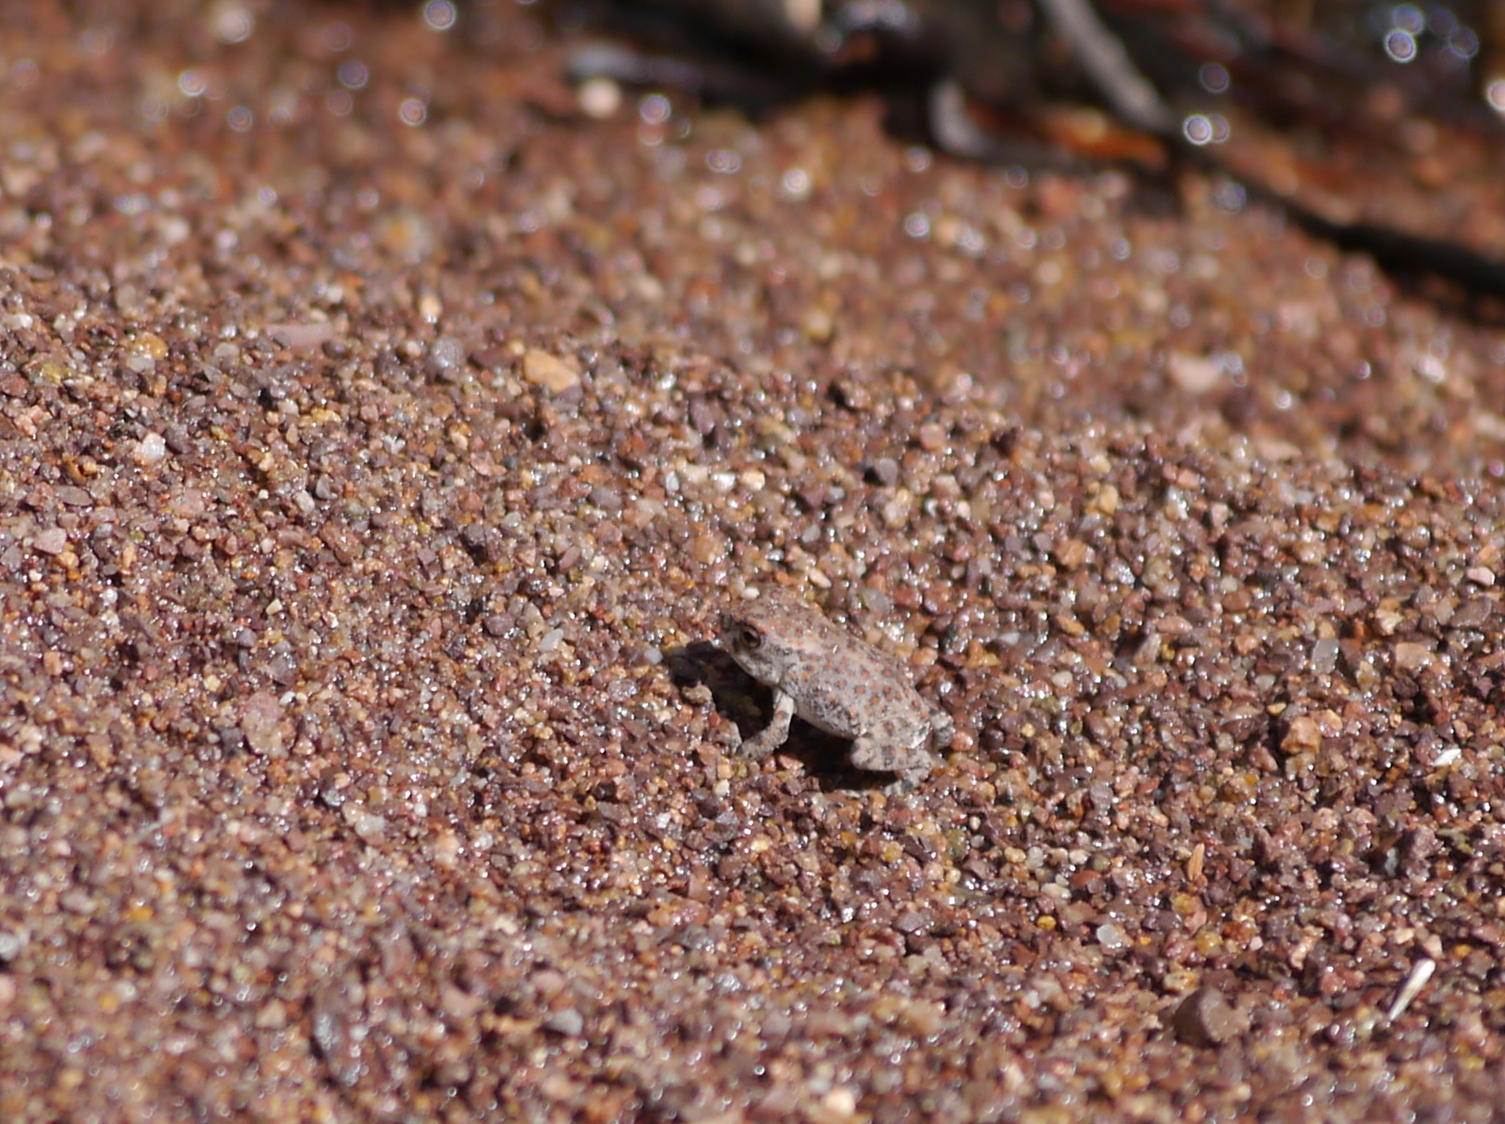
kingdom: Animalia
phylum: Chordata
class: Amphibia
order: Anura
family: Bufonidae
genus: Anaxyrus
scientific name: Anaxyrus punctatus
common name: Red-spotted toad
